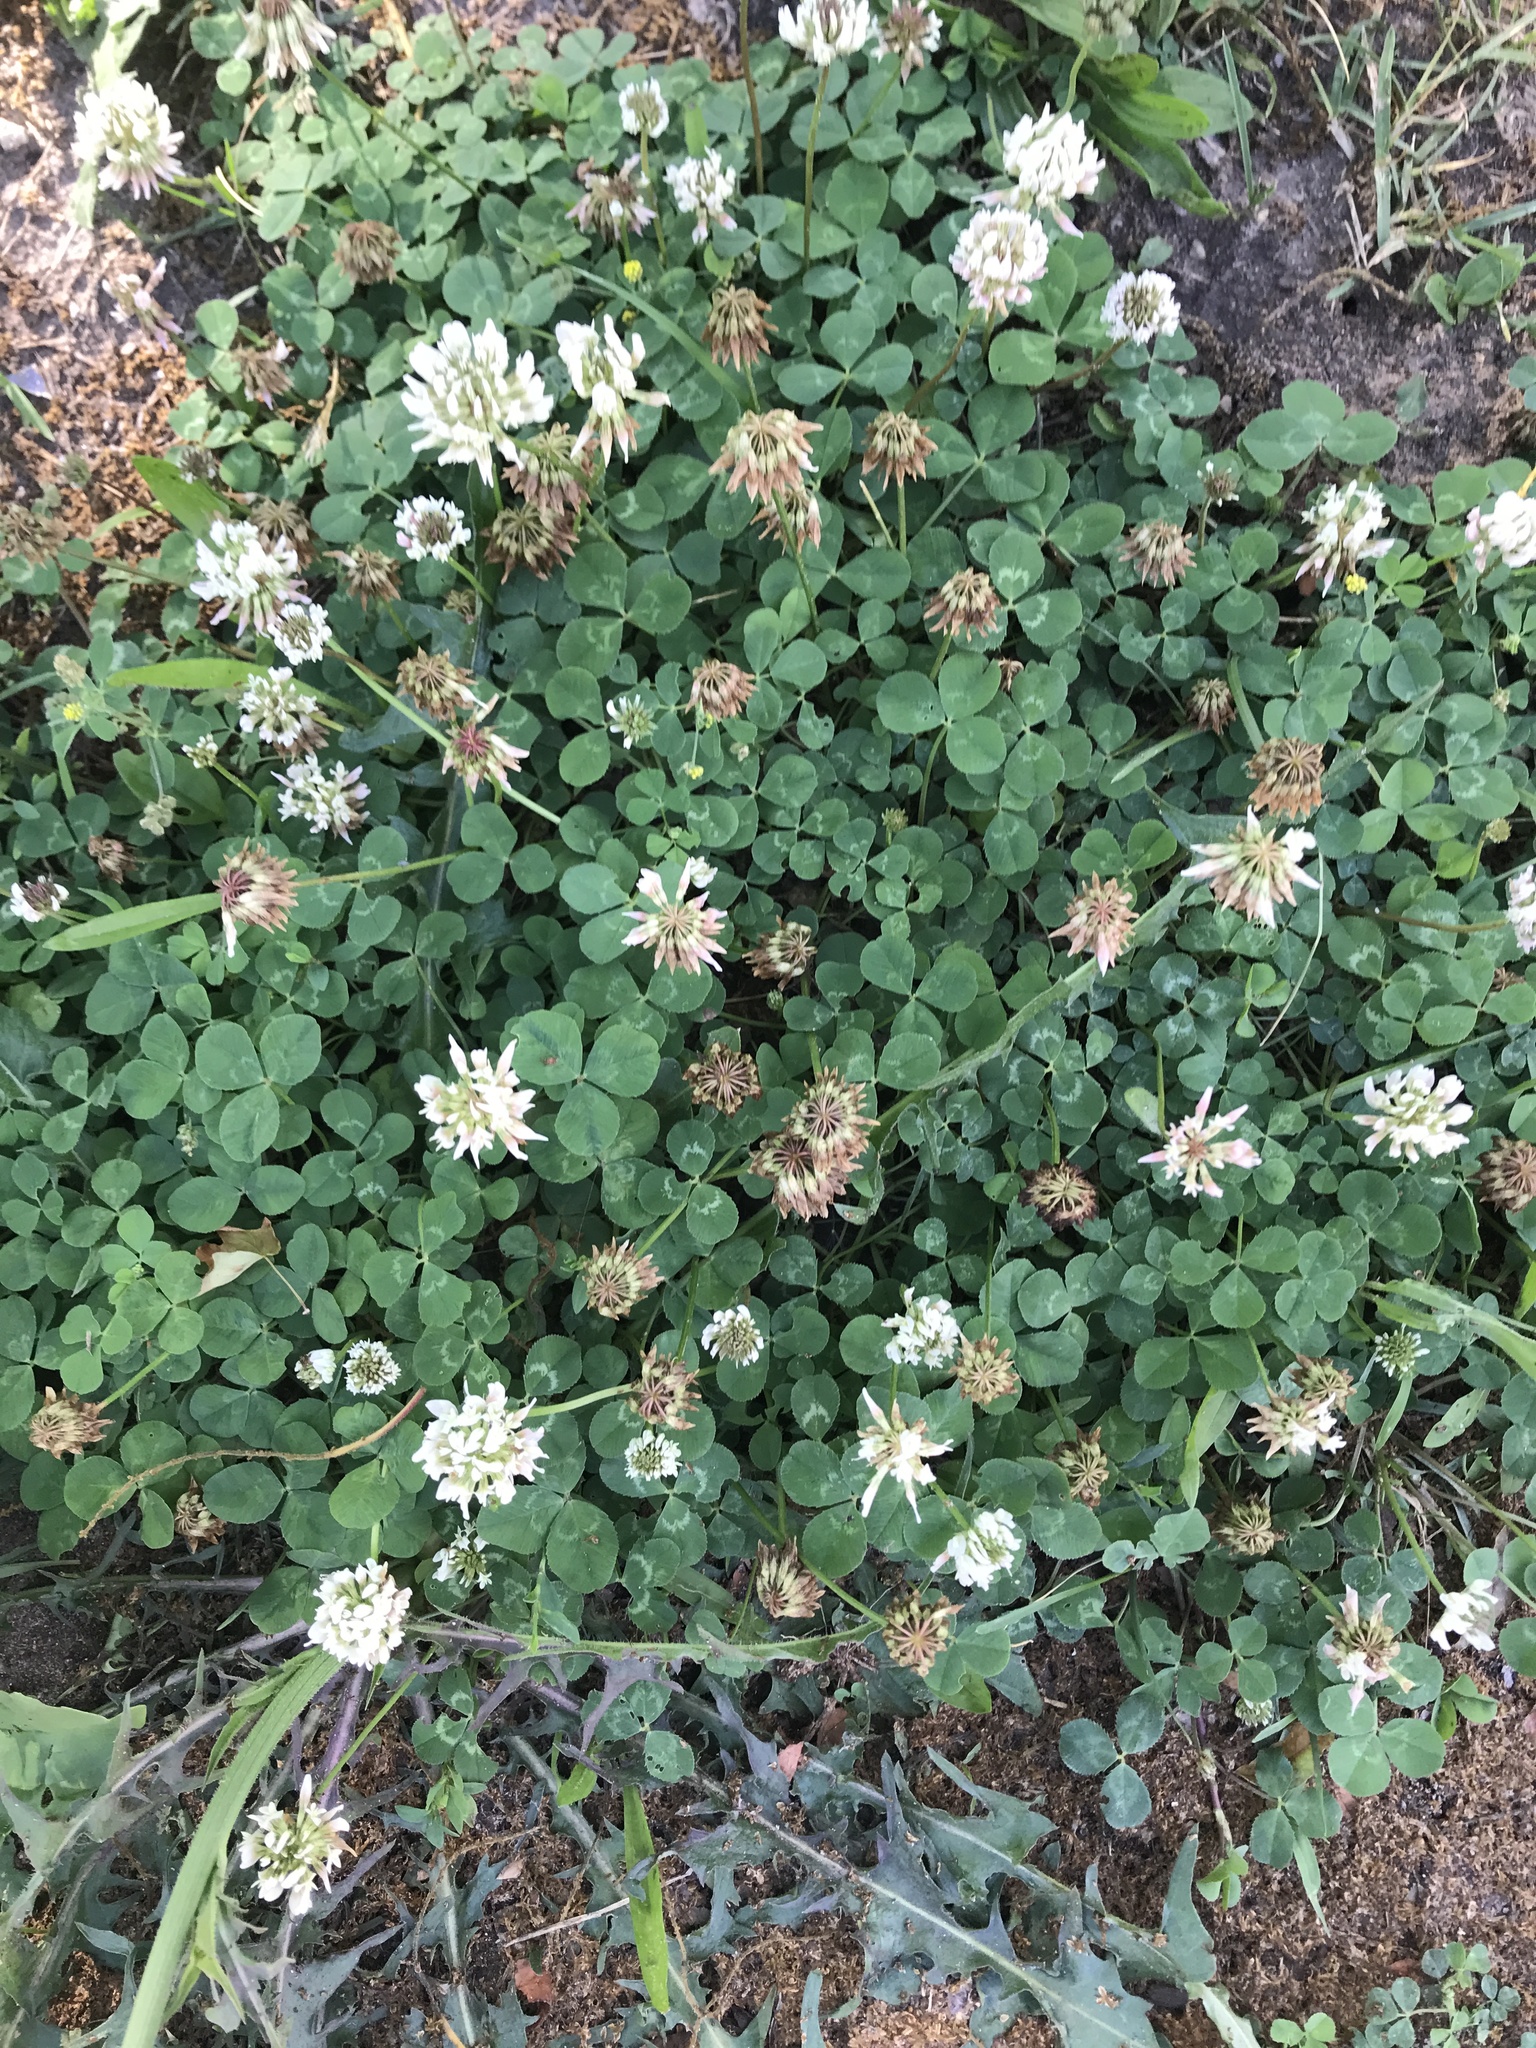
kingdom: Plantae
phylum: Tracheophyta
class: Magnoliopsida
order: Fabales
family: Fabaceae
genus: Trifolium
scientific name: Trifolium repens
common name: White clover
